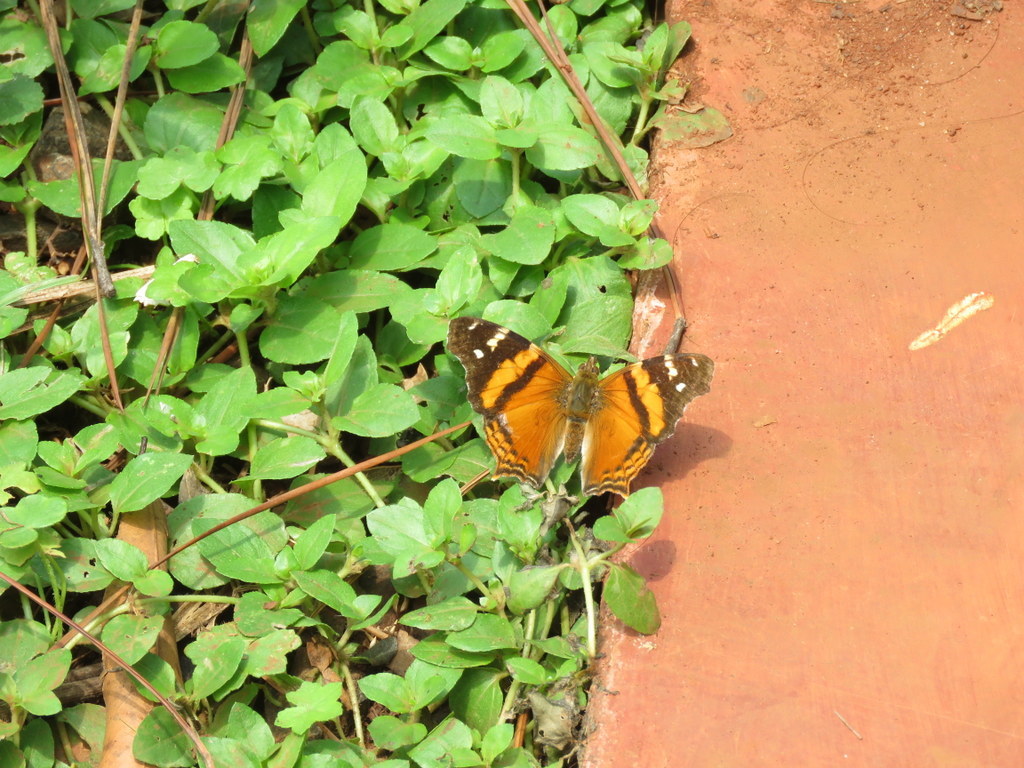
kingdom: Animalia
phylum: Arthropoda
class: Insecta
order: Lepidoptera
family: Nymphalidae
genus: Hypanartia
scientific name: Hypanartia bella
